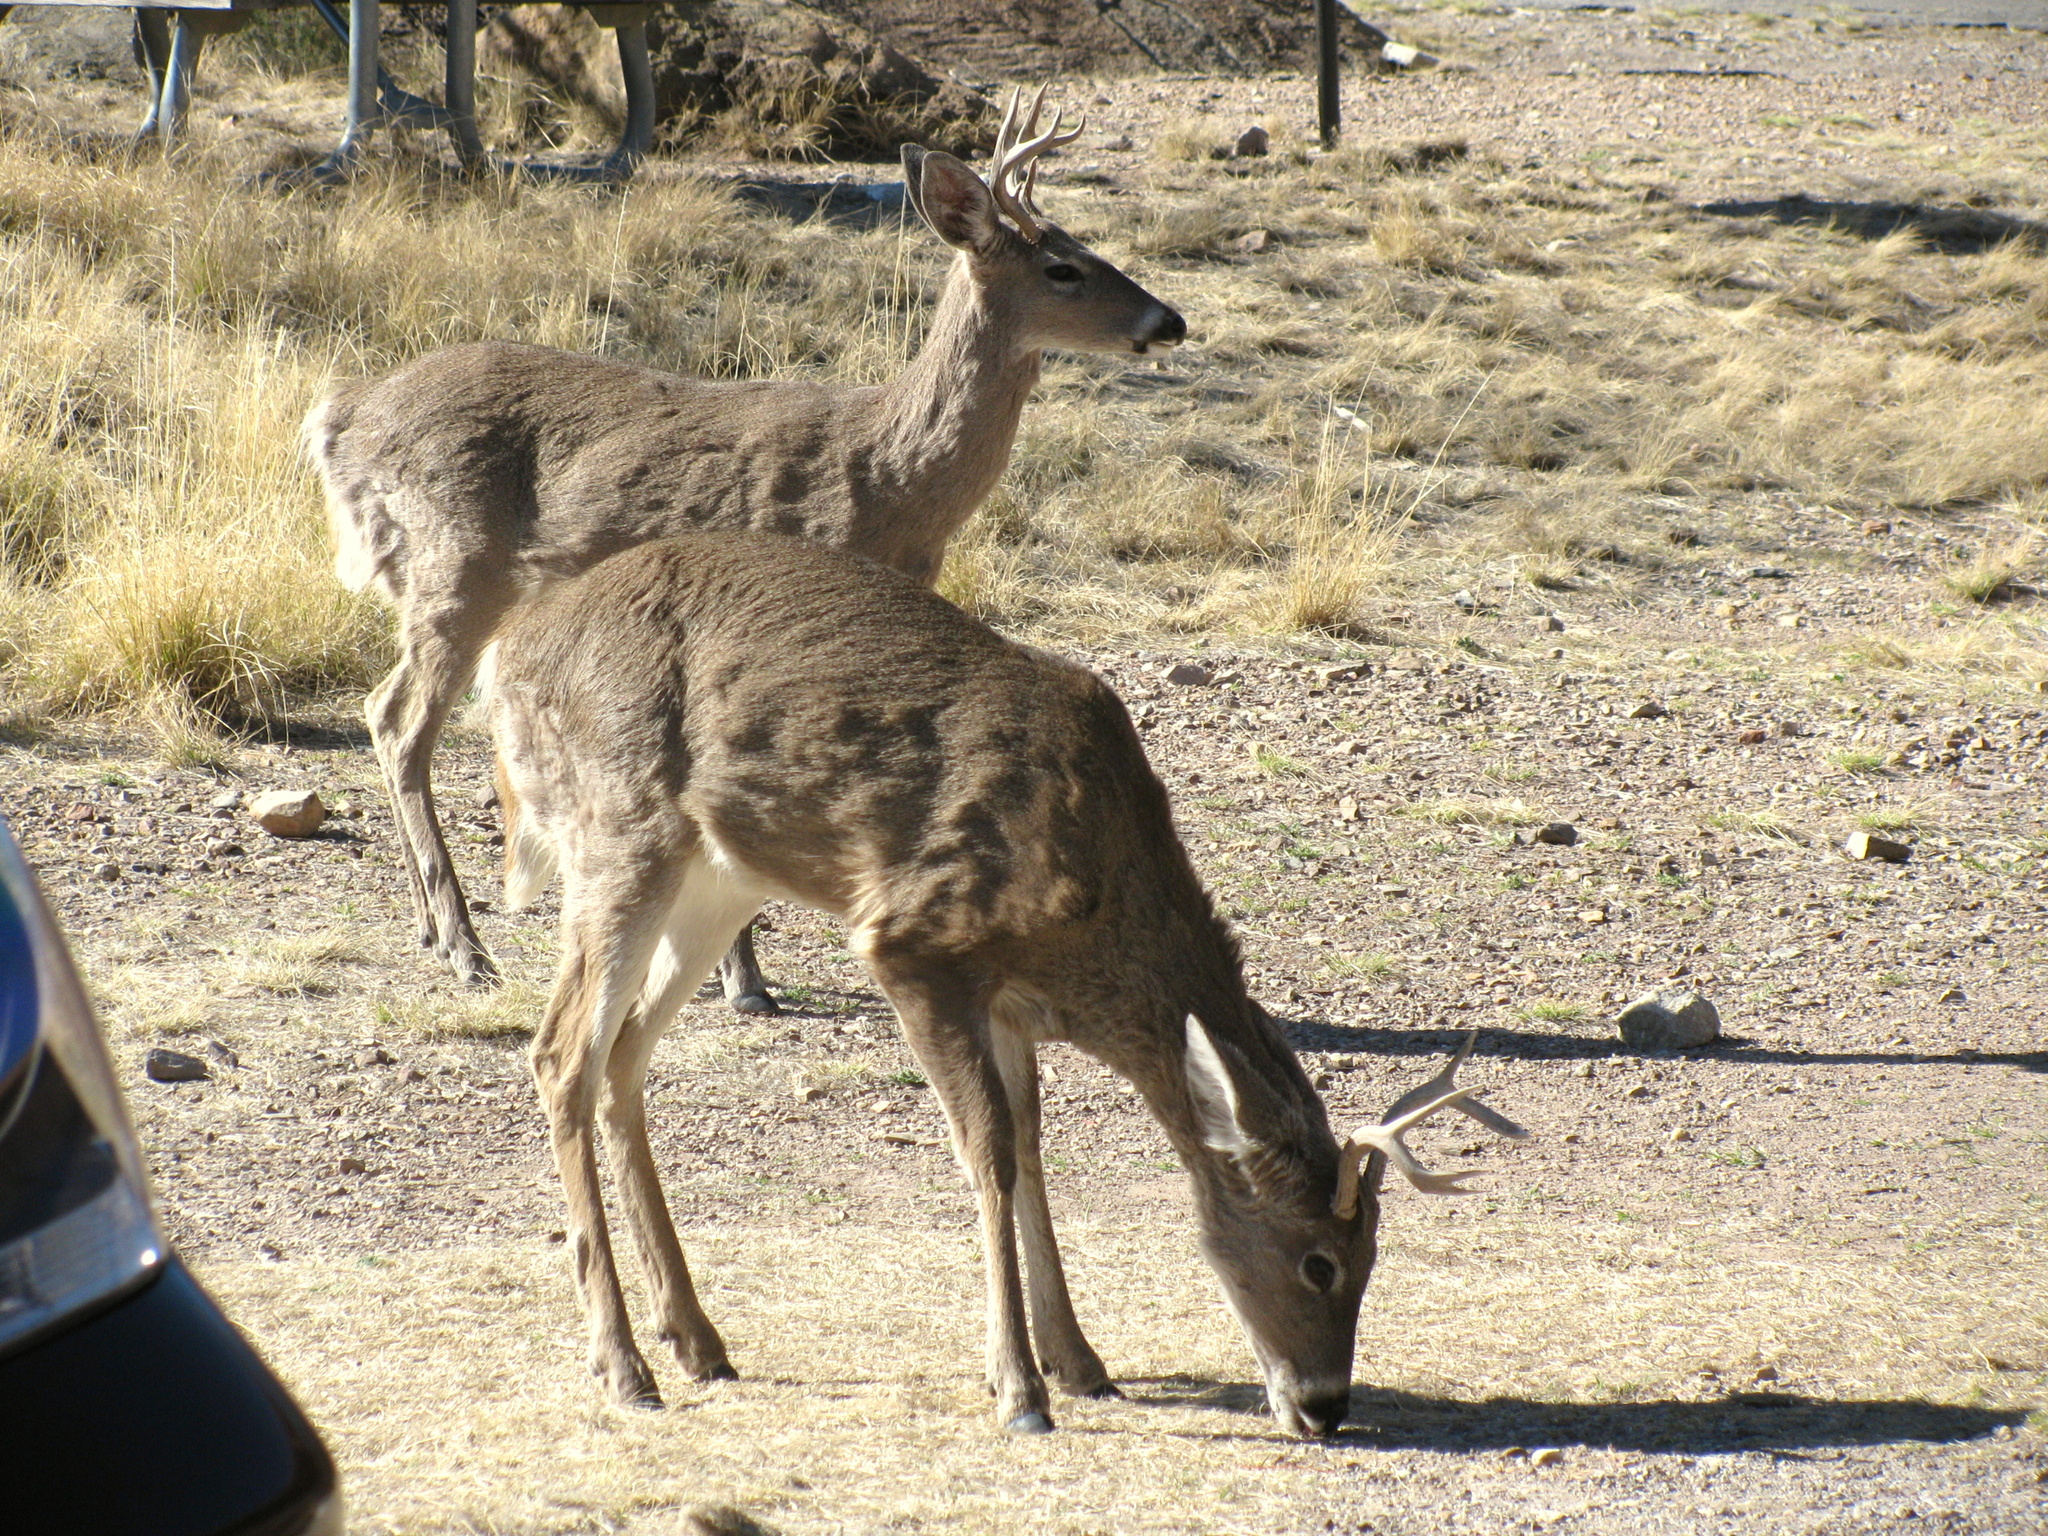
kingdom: Animalia
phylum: Chordata
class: Mammalia
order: Artiodactyla
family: Cervidae
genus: Odocoileus
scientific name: Odocoileus virginianus
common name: White-tailed deer
